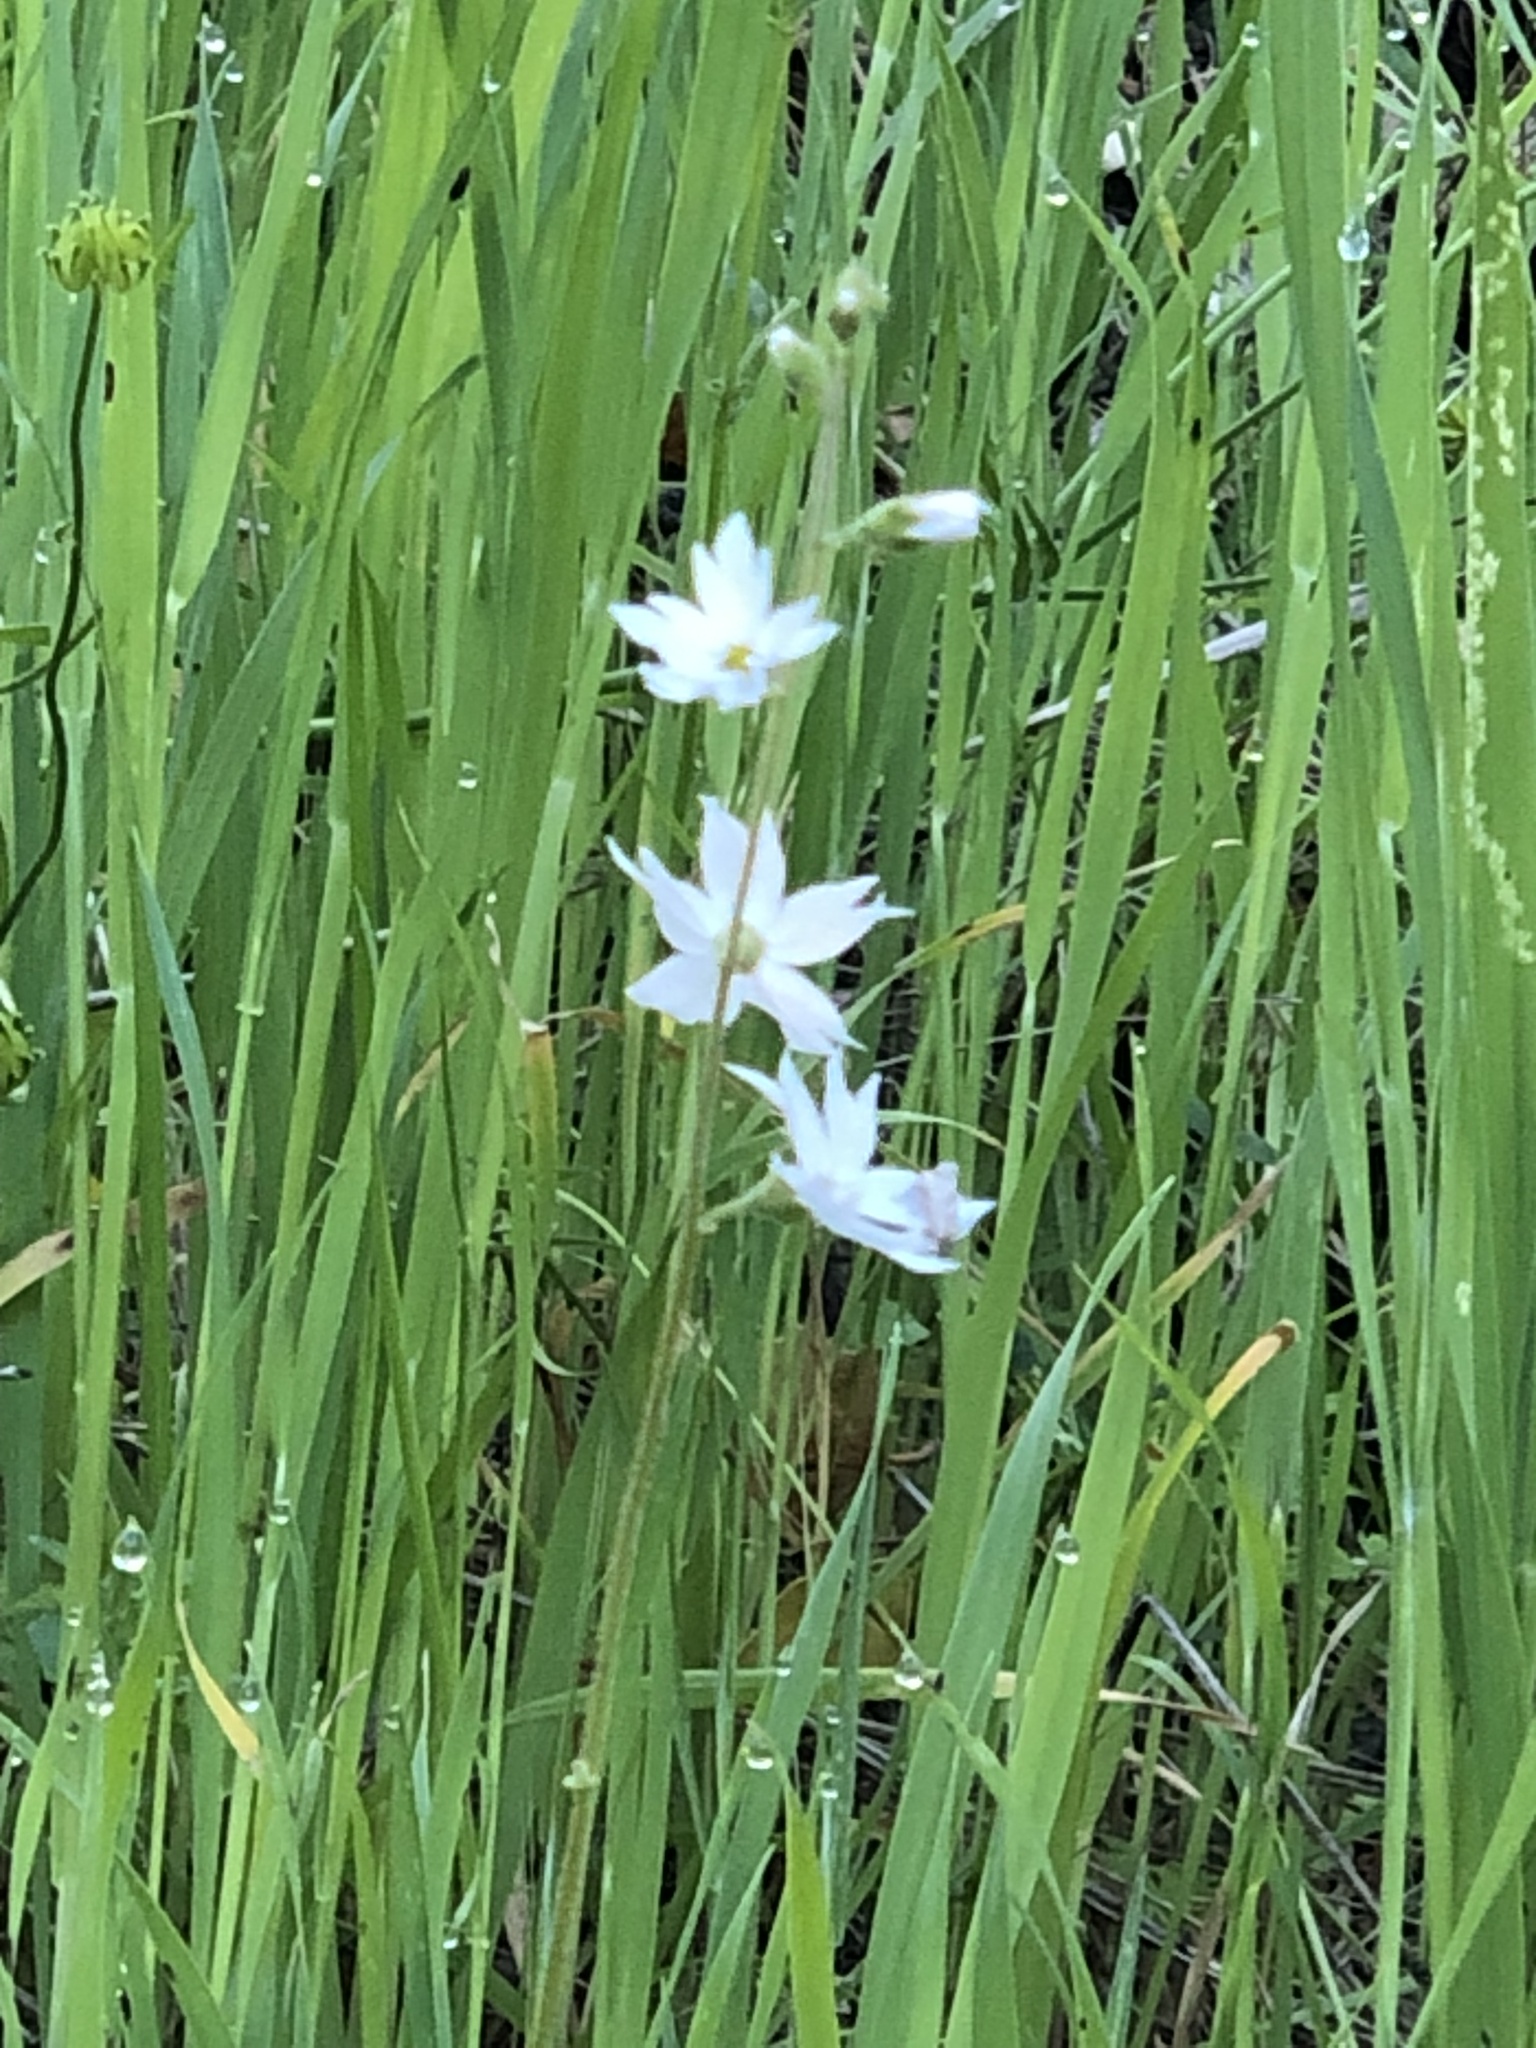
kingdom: Plantae
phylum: Tracheophyta
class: Magnoliopsida
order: Saxifragales
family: Saxifragaceae
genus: Lithophragma
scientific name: Lithophragma affine
